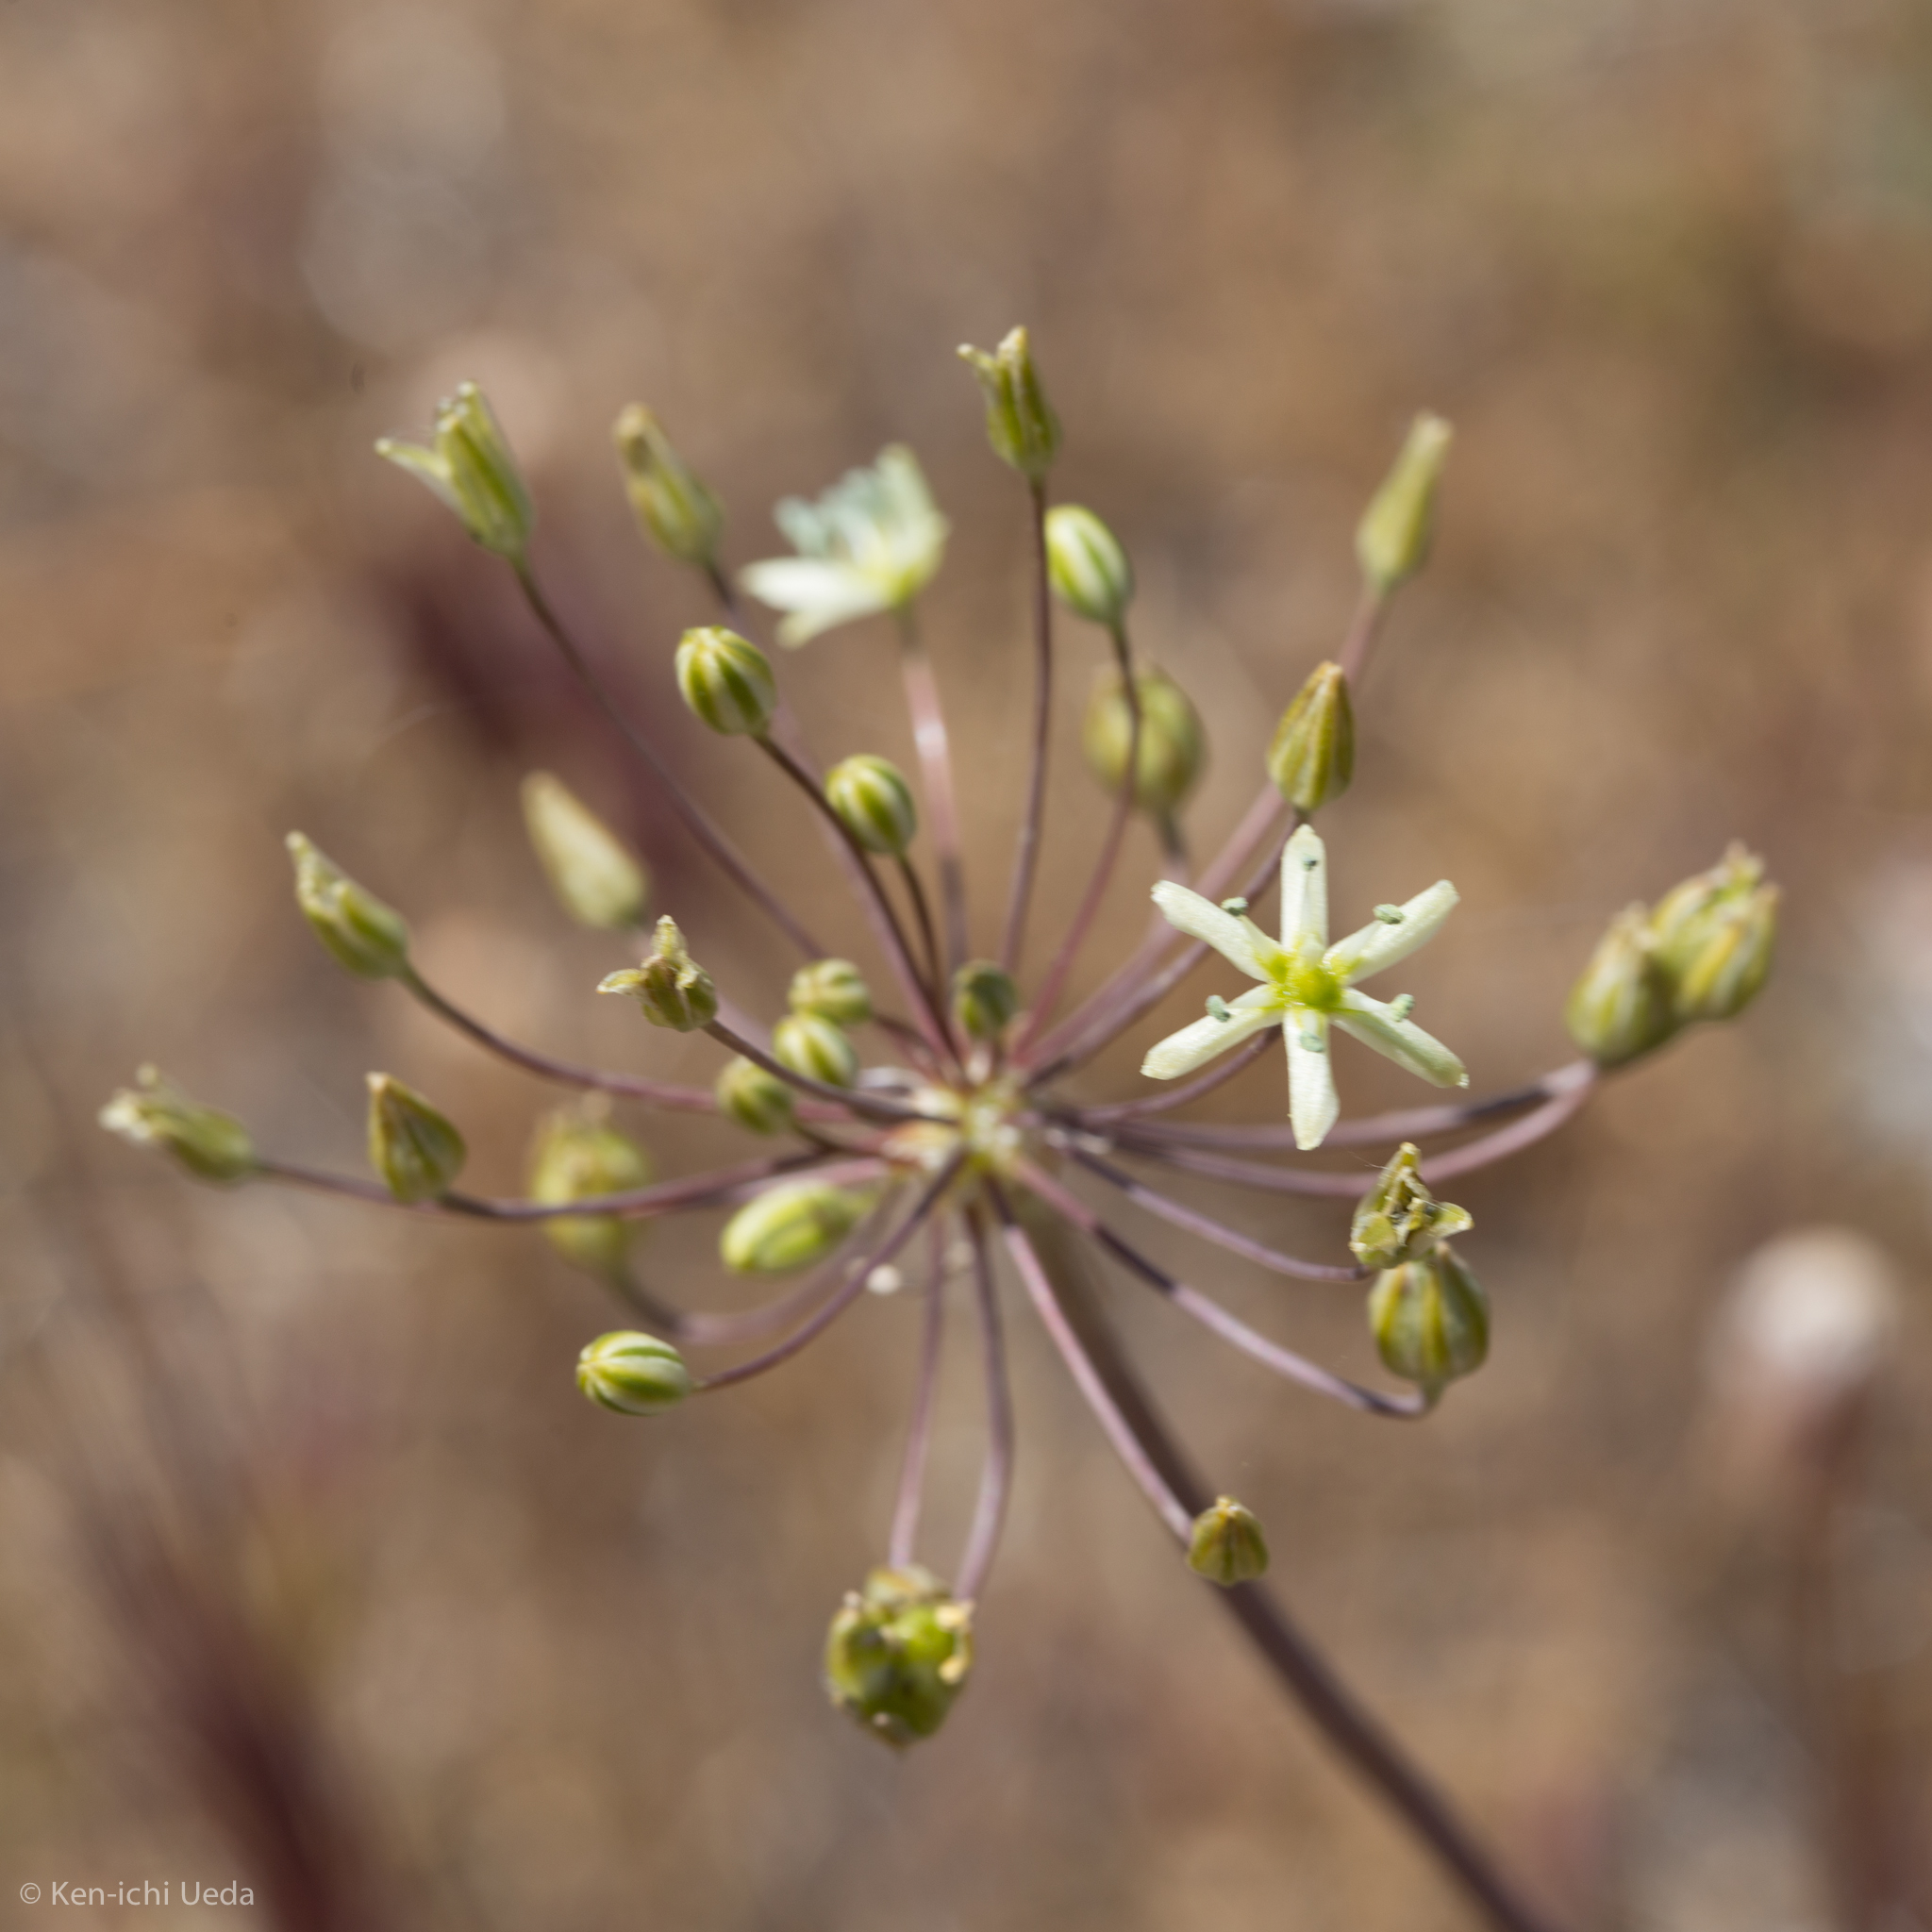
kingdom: Plantae
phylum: Tracheophyta
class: Liliopsida
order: Asparagales
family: Asparagaceae
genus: Muilla
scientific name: Muilla maritima
